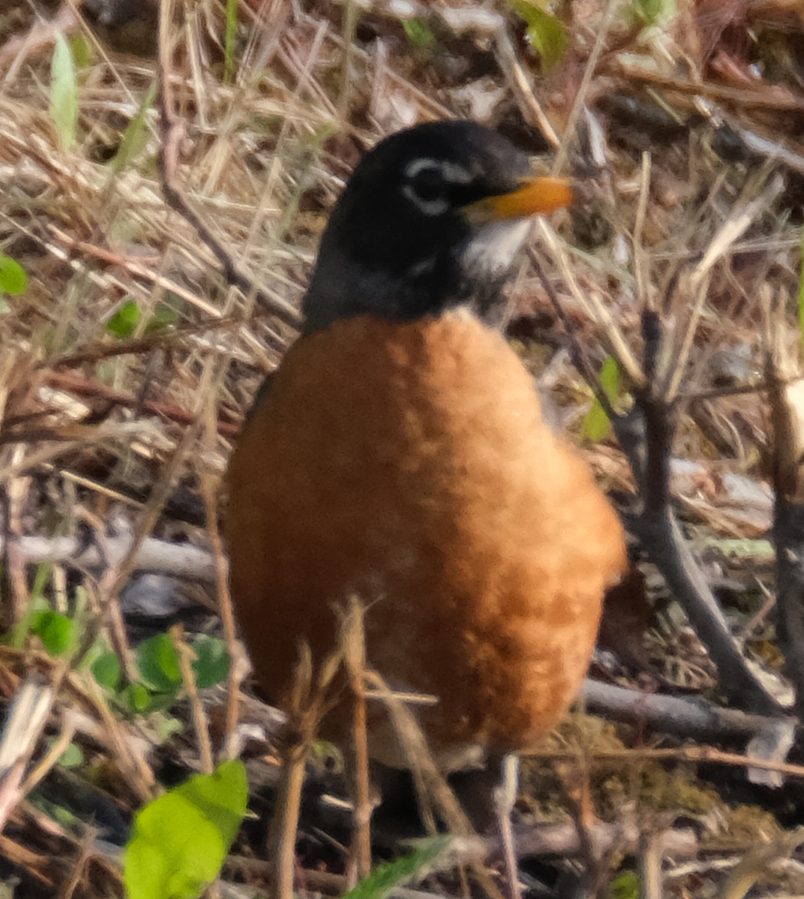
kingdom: Animalia
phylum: Chordata
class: Aves
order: Passeriformes
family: Turdidae
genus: Turdus
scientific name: Turdus migratorius
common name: American robin
